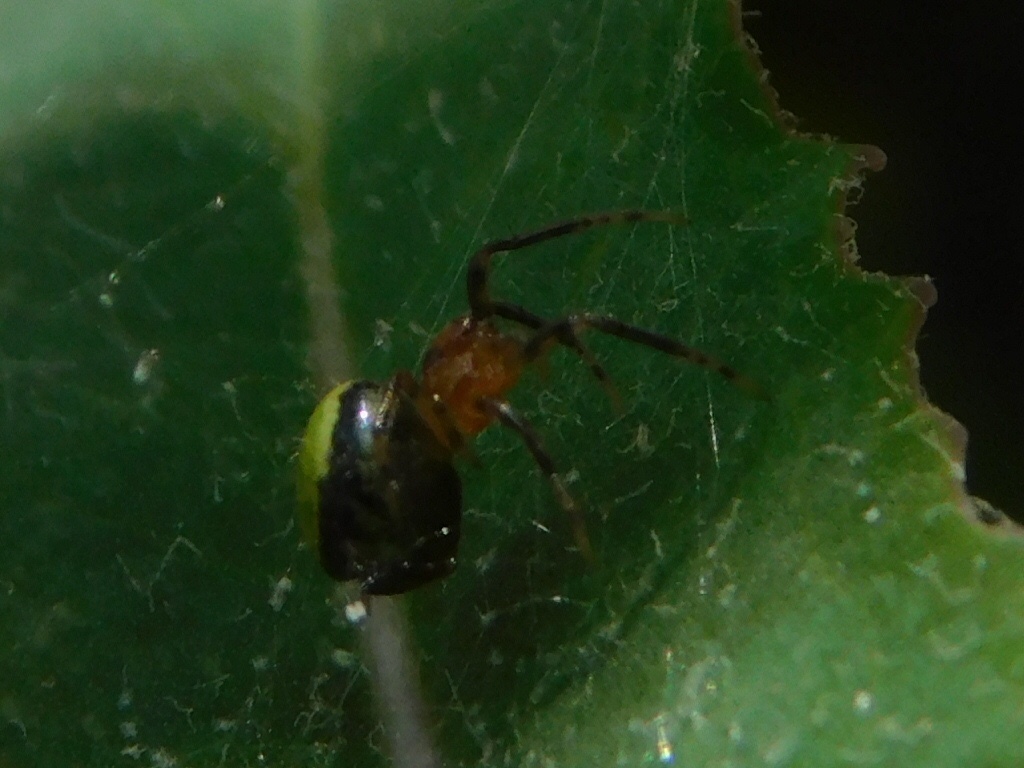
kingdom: Animalia
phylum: Arthropoda
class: Arachnida
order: Araneae
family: Araneidae
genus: Eriophora
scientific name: Eriophora ravilla
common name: Orb weavers
